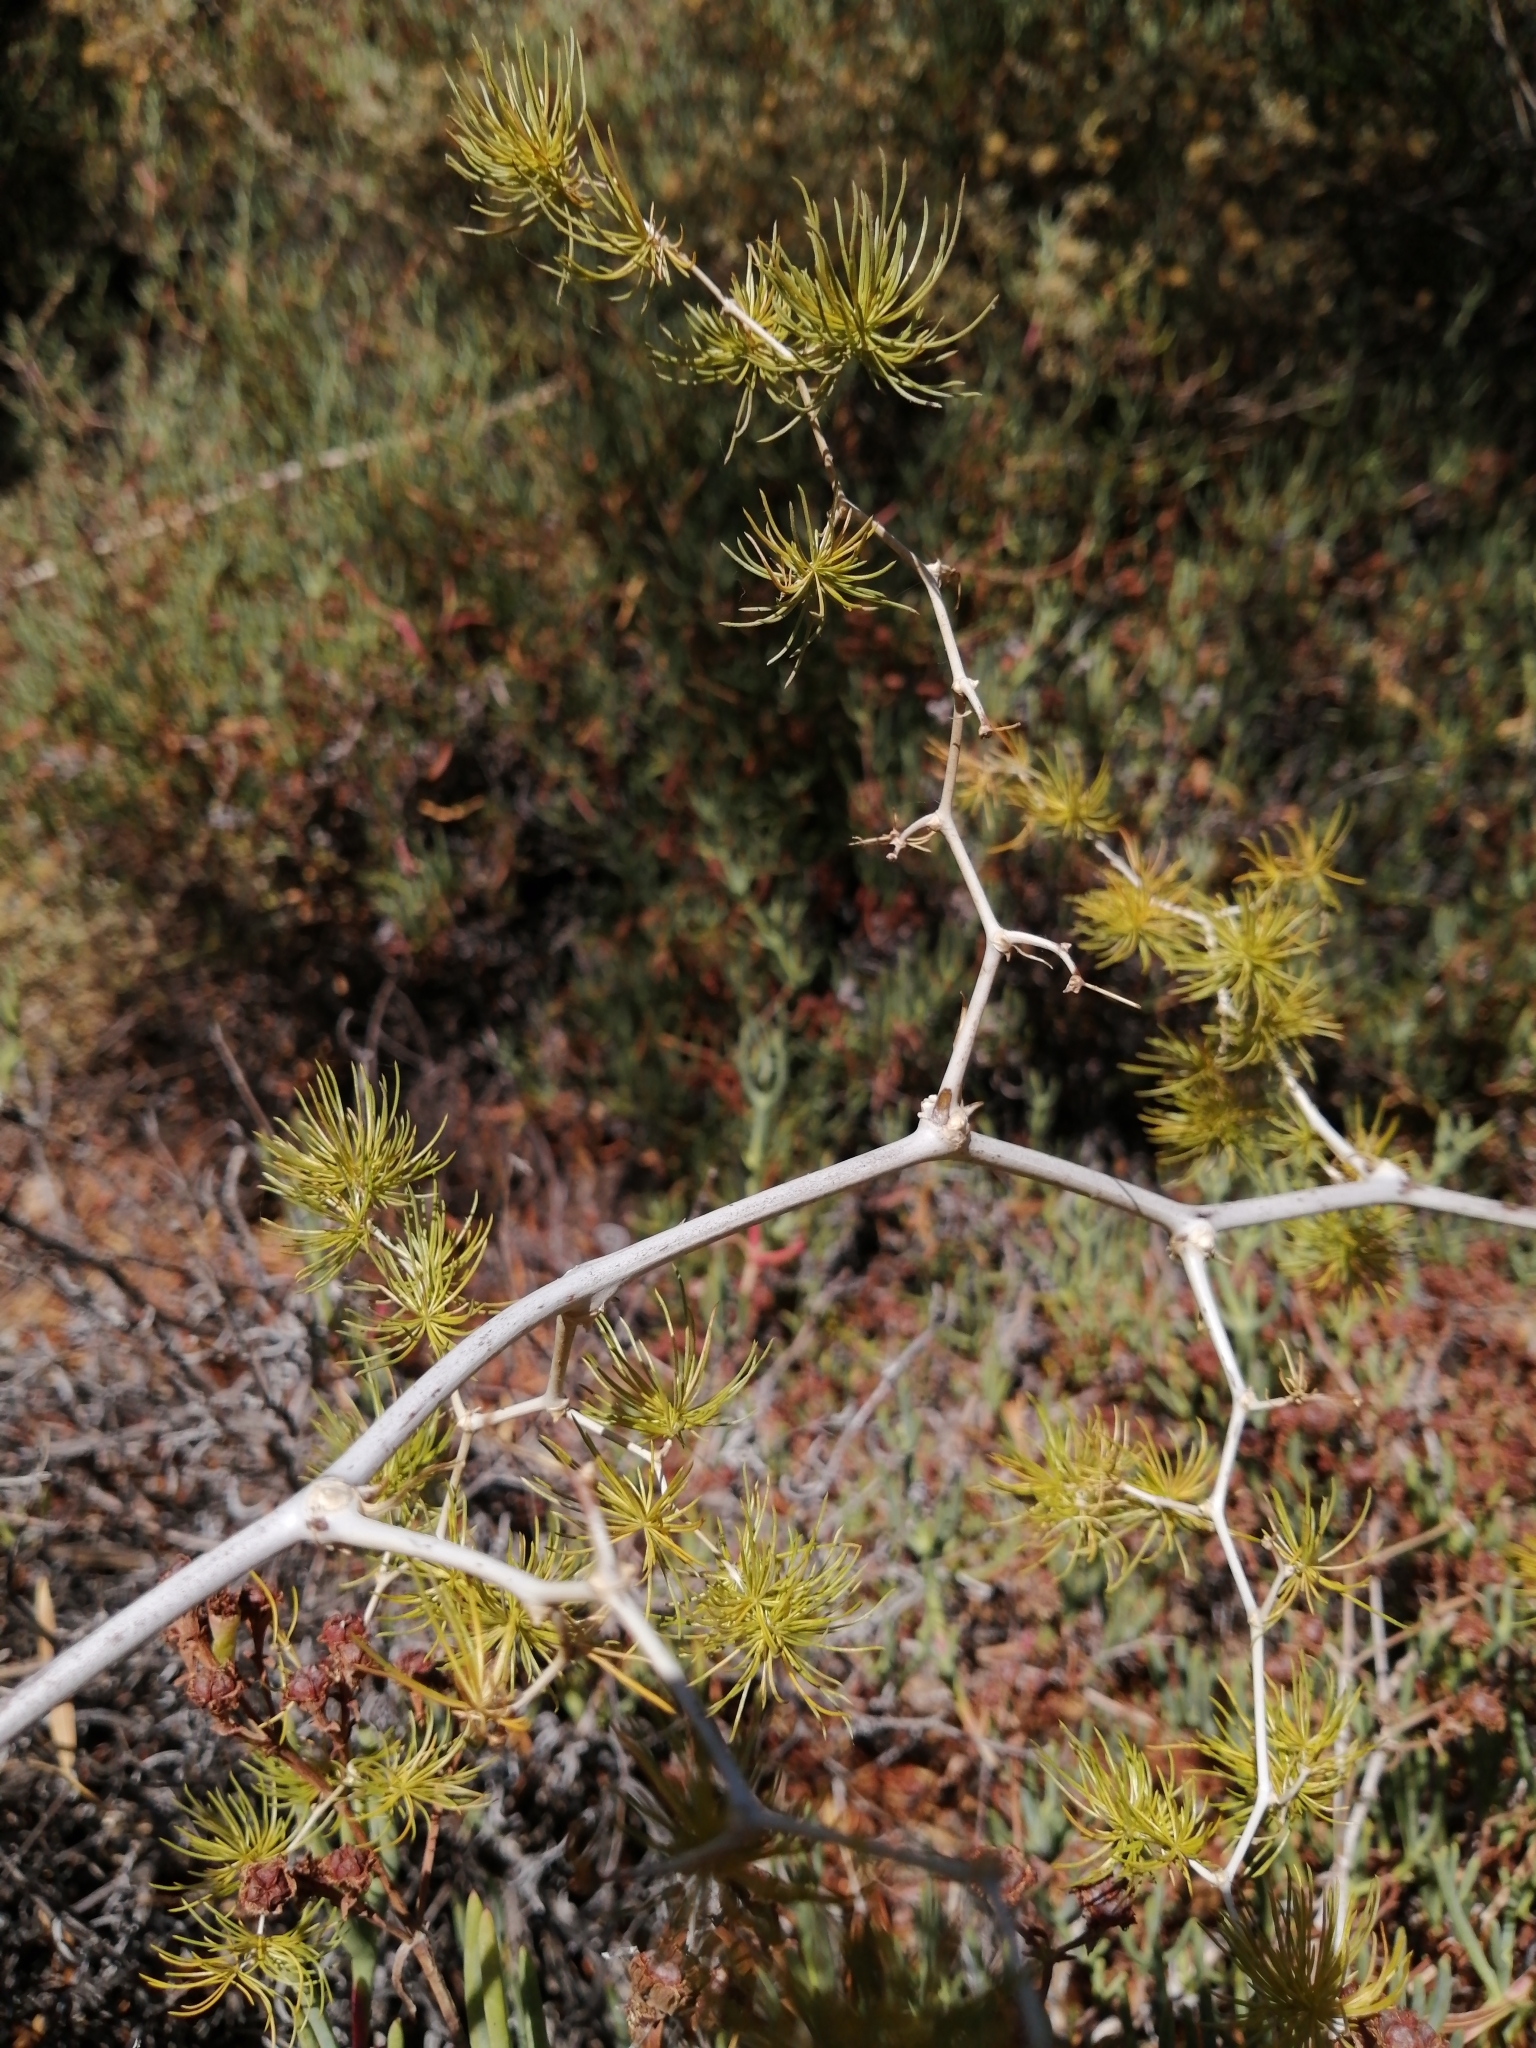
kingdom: Plantae
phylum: Tracheophyta
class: Liliopsida
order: Asparagales
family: Asparagaceae
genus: Asparagus
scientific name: Asparagus retrofractus
